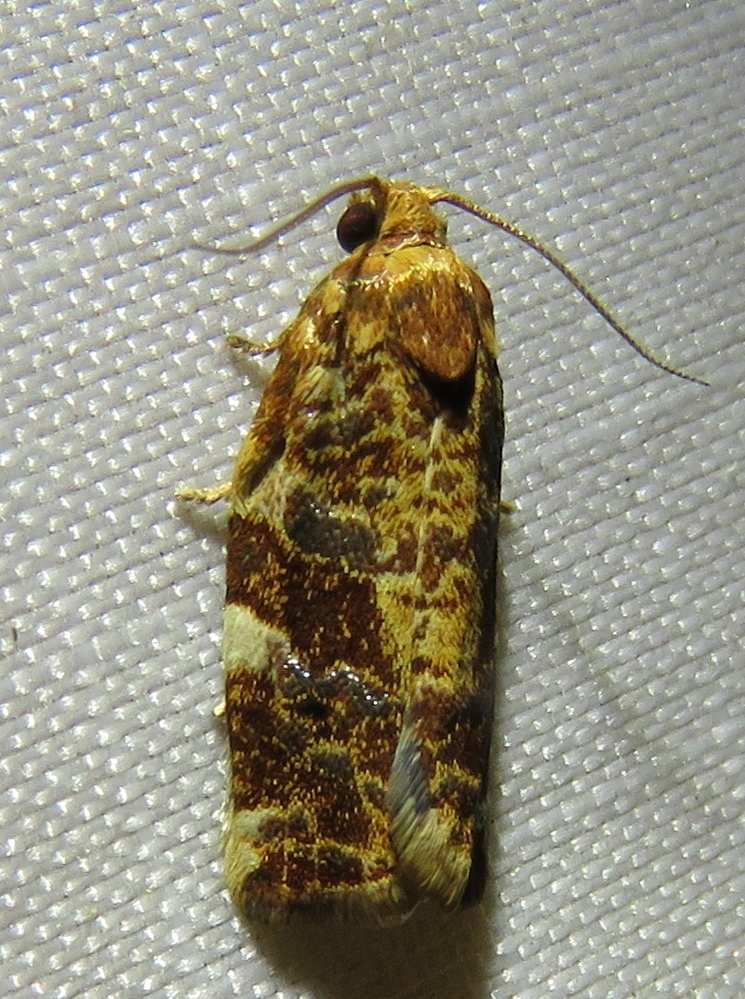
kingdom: Animalia
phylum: Arthropoda
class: Insecta
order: Lepidoptera
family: Tortricidae
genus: Archips
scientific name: Archips argyrospila
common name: Fruit-tree leafroller moth
